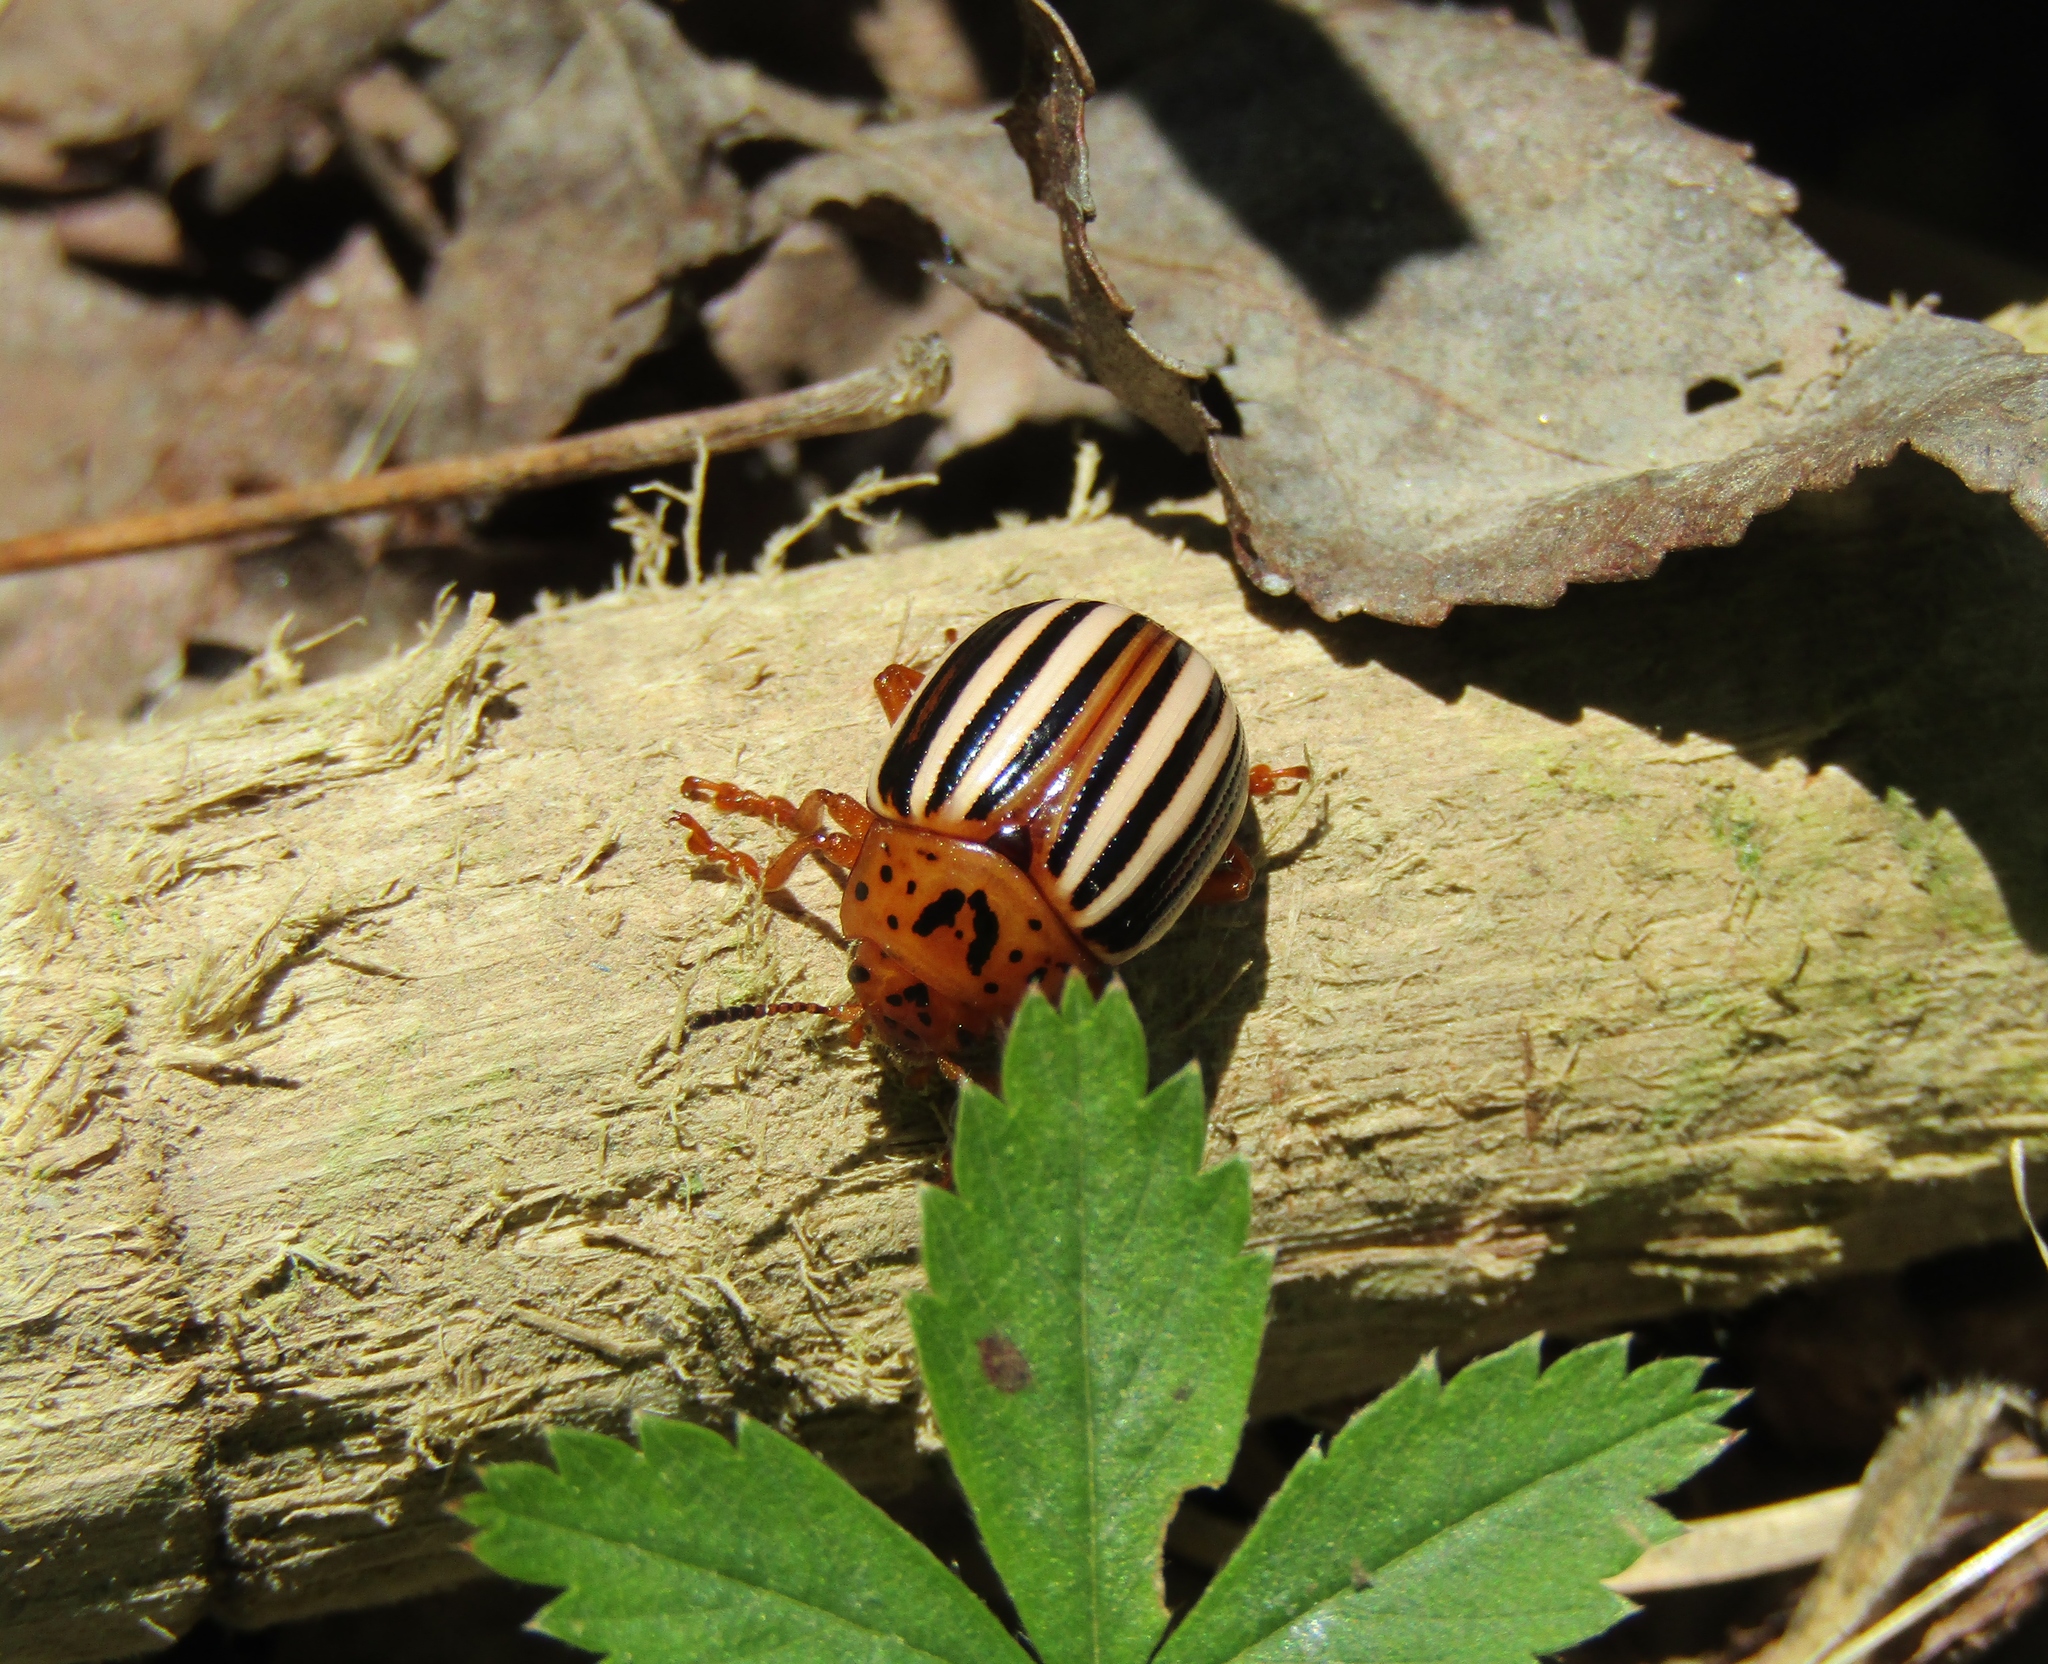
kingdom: Animalia
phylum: Arthropoda
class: Insecta
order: Coleoptera
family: Chrysomelidae
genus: Leptinotarsa
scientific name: Leptinotarsa juncta
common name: False potato beetle
